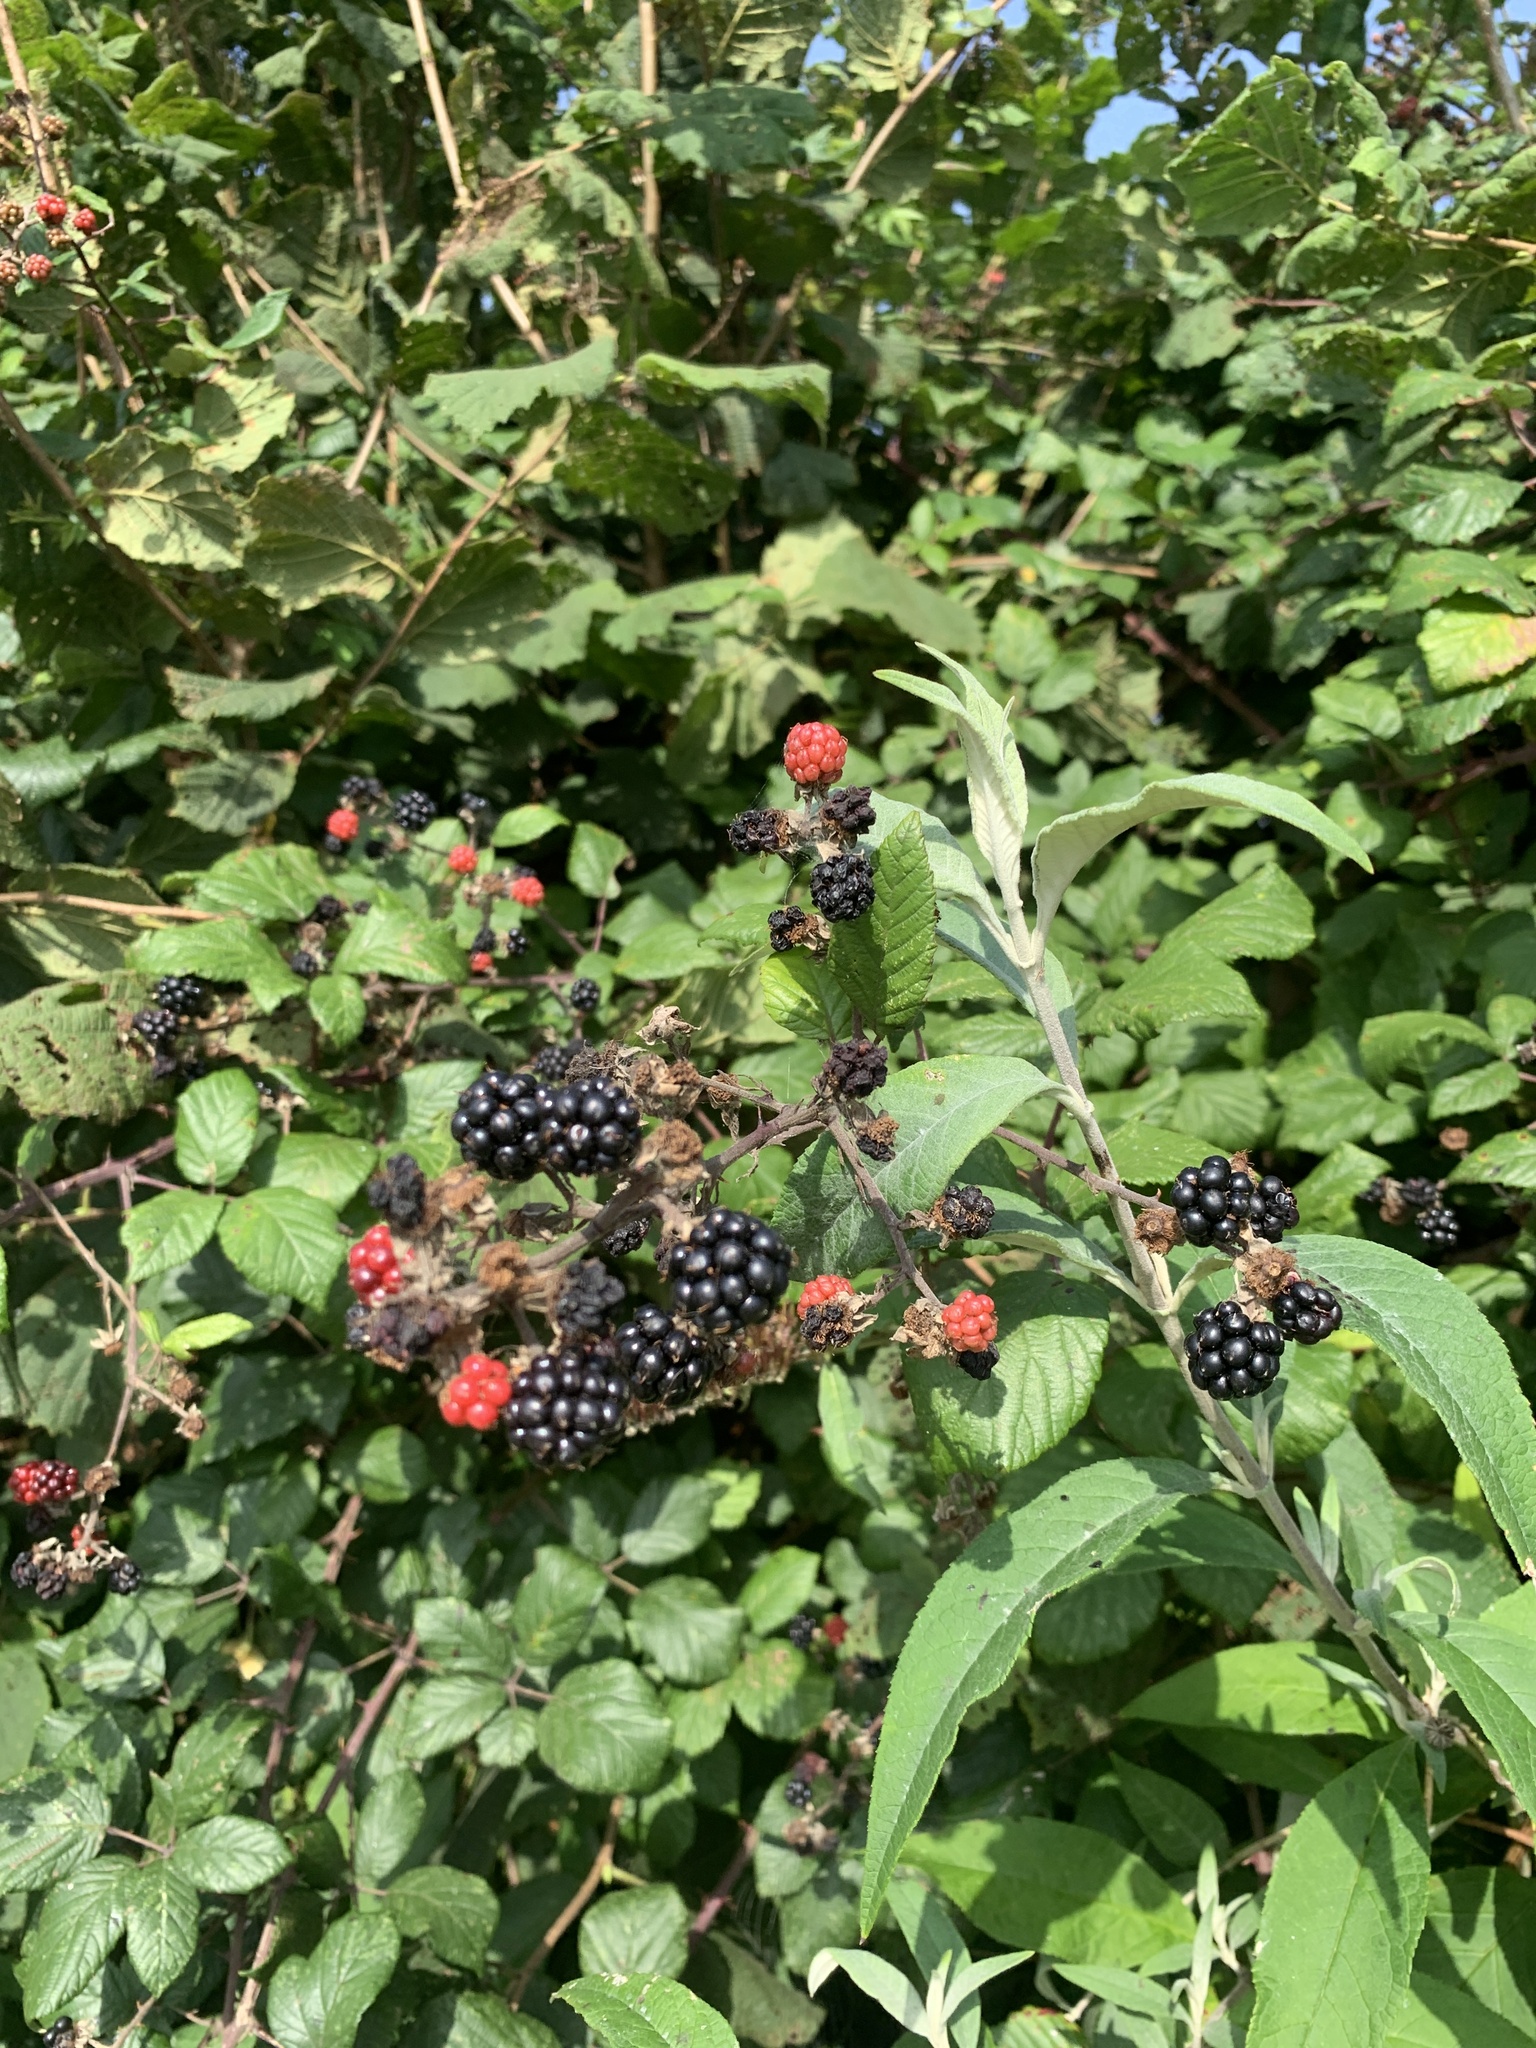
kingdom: Plantae
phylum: Tracheophyta
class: Magnoliopsida
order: Rosales
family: Rosaceae
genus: Rubus
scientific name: Rubus fruticosus
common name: Blackberry, bramble
